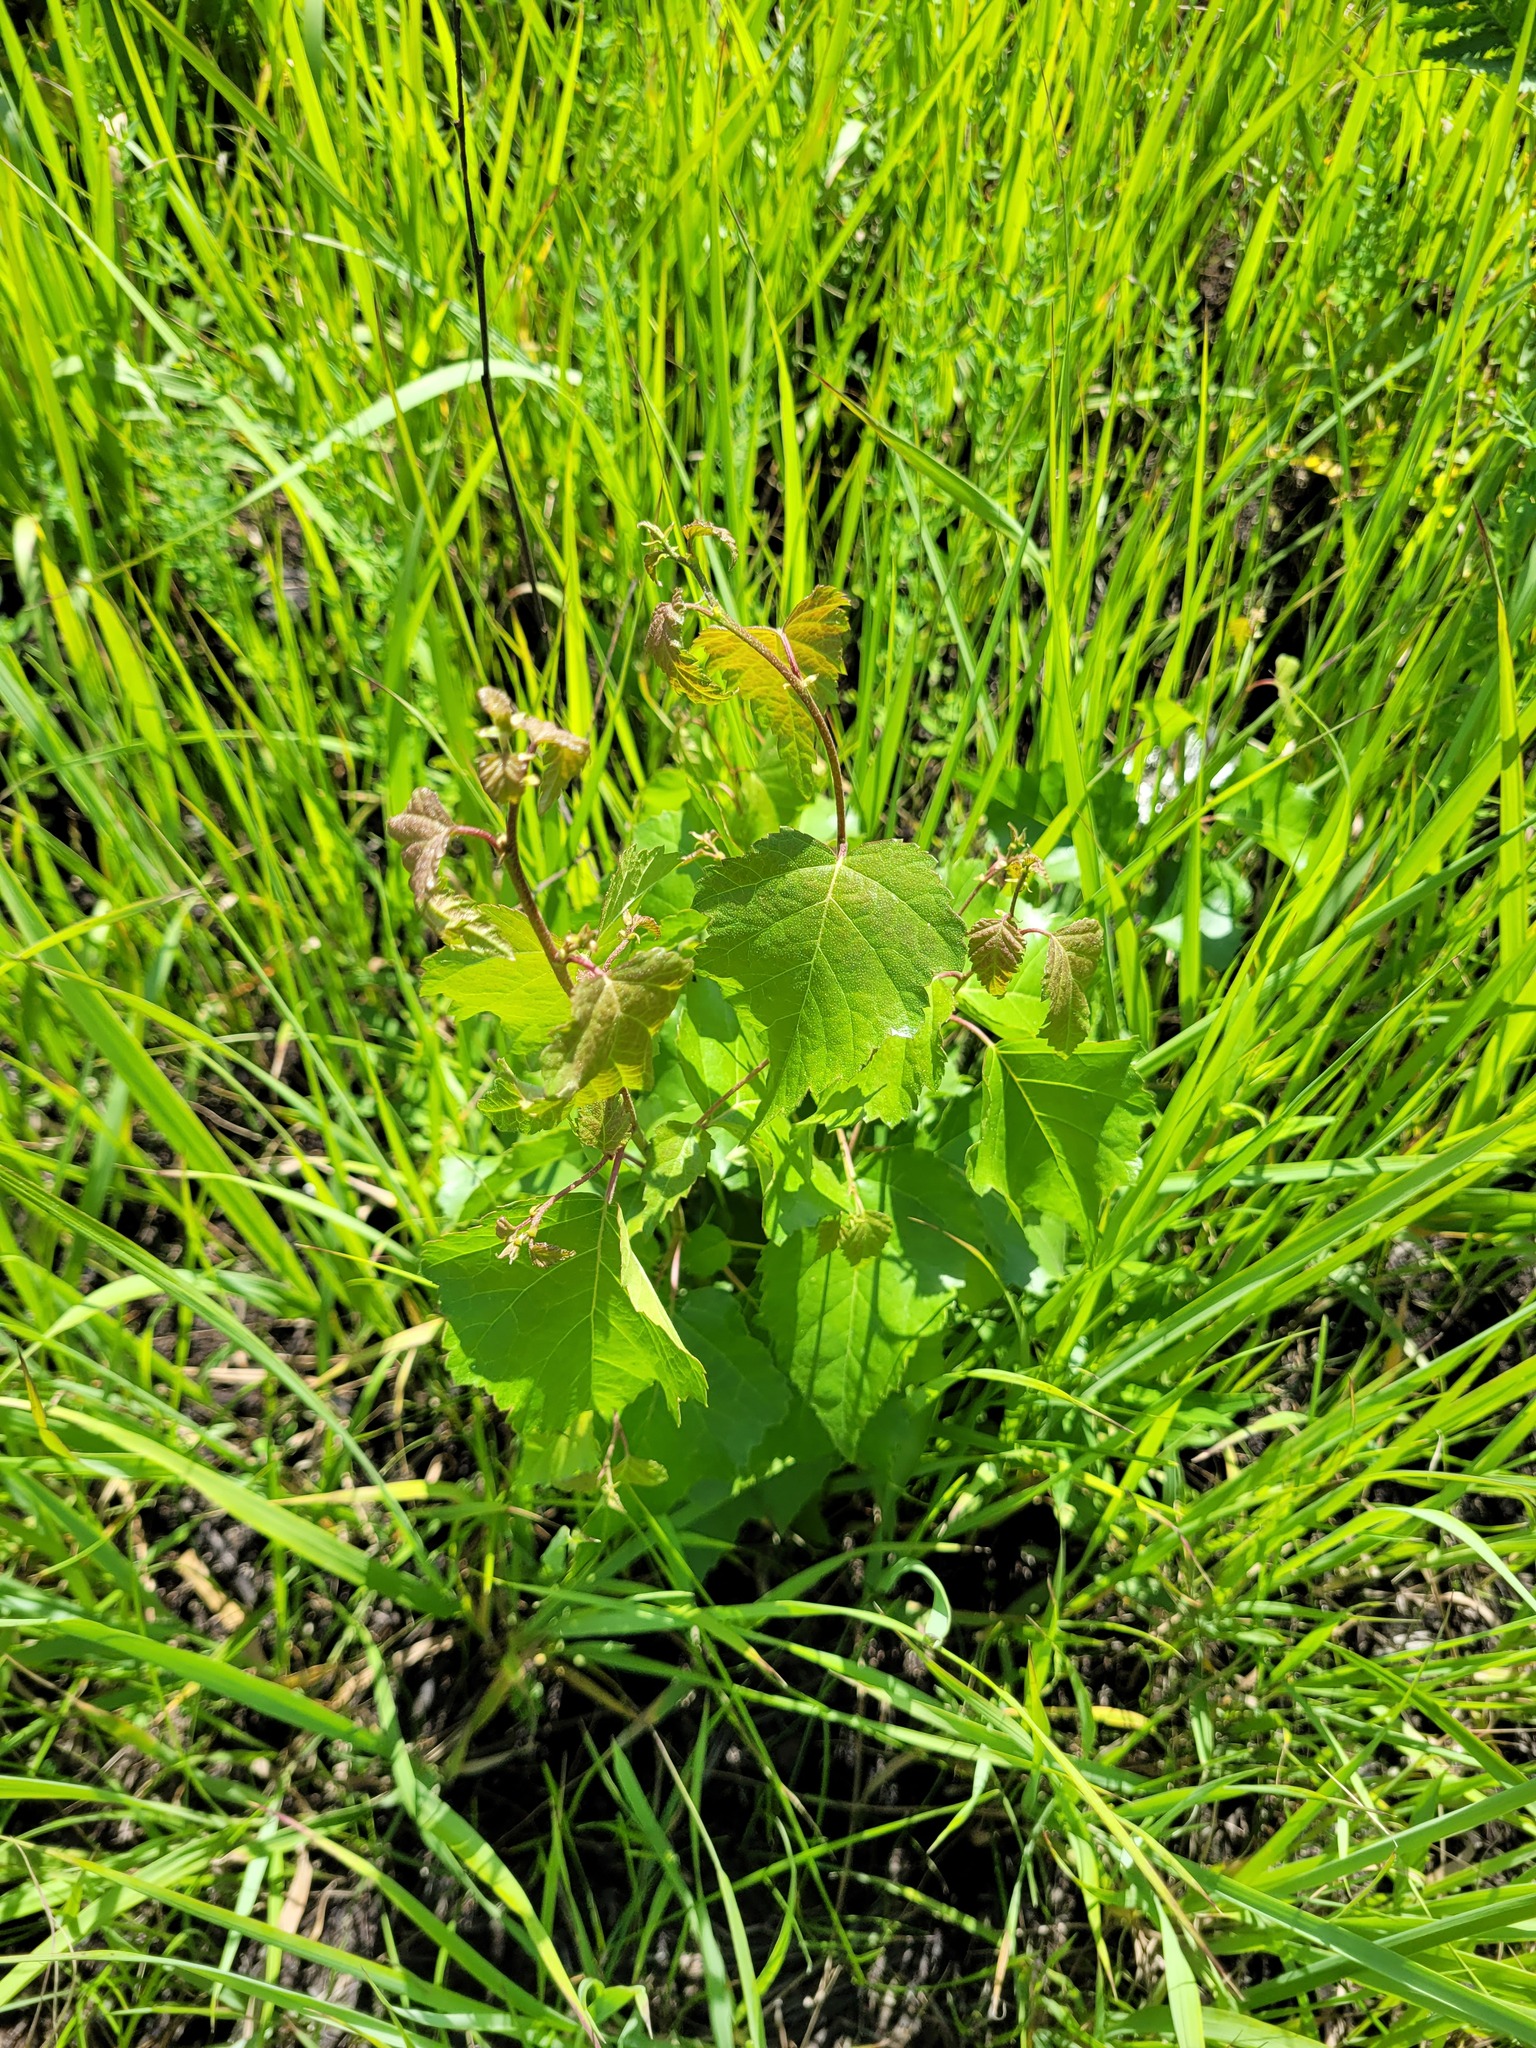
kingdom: Plantae
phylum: Tracheophyta
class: Magnoliopsida
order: Fagales
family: Betulaceae
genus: Betula
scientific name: Betula pendula
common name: Silver birch
